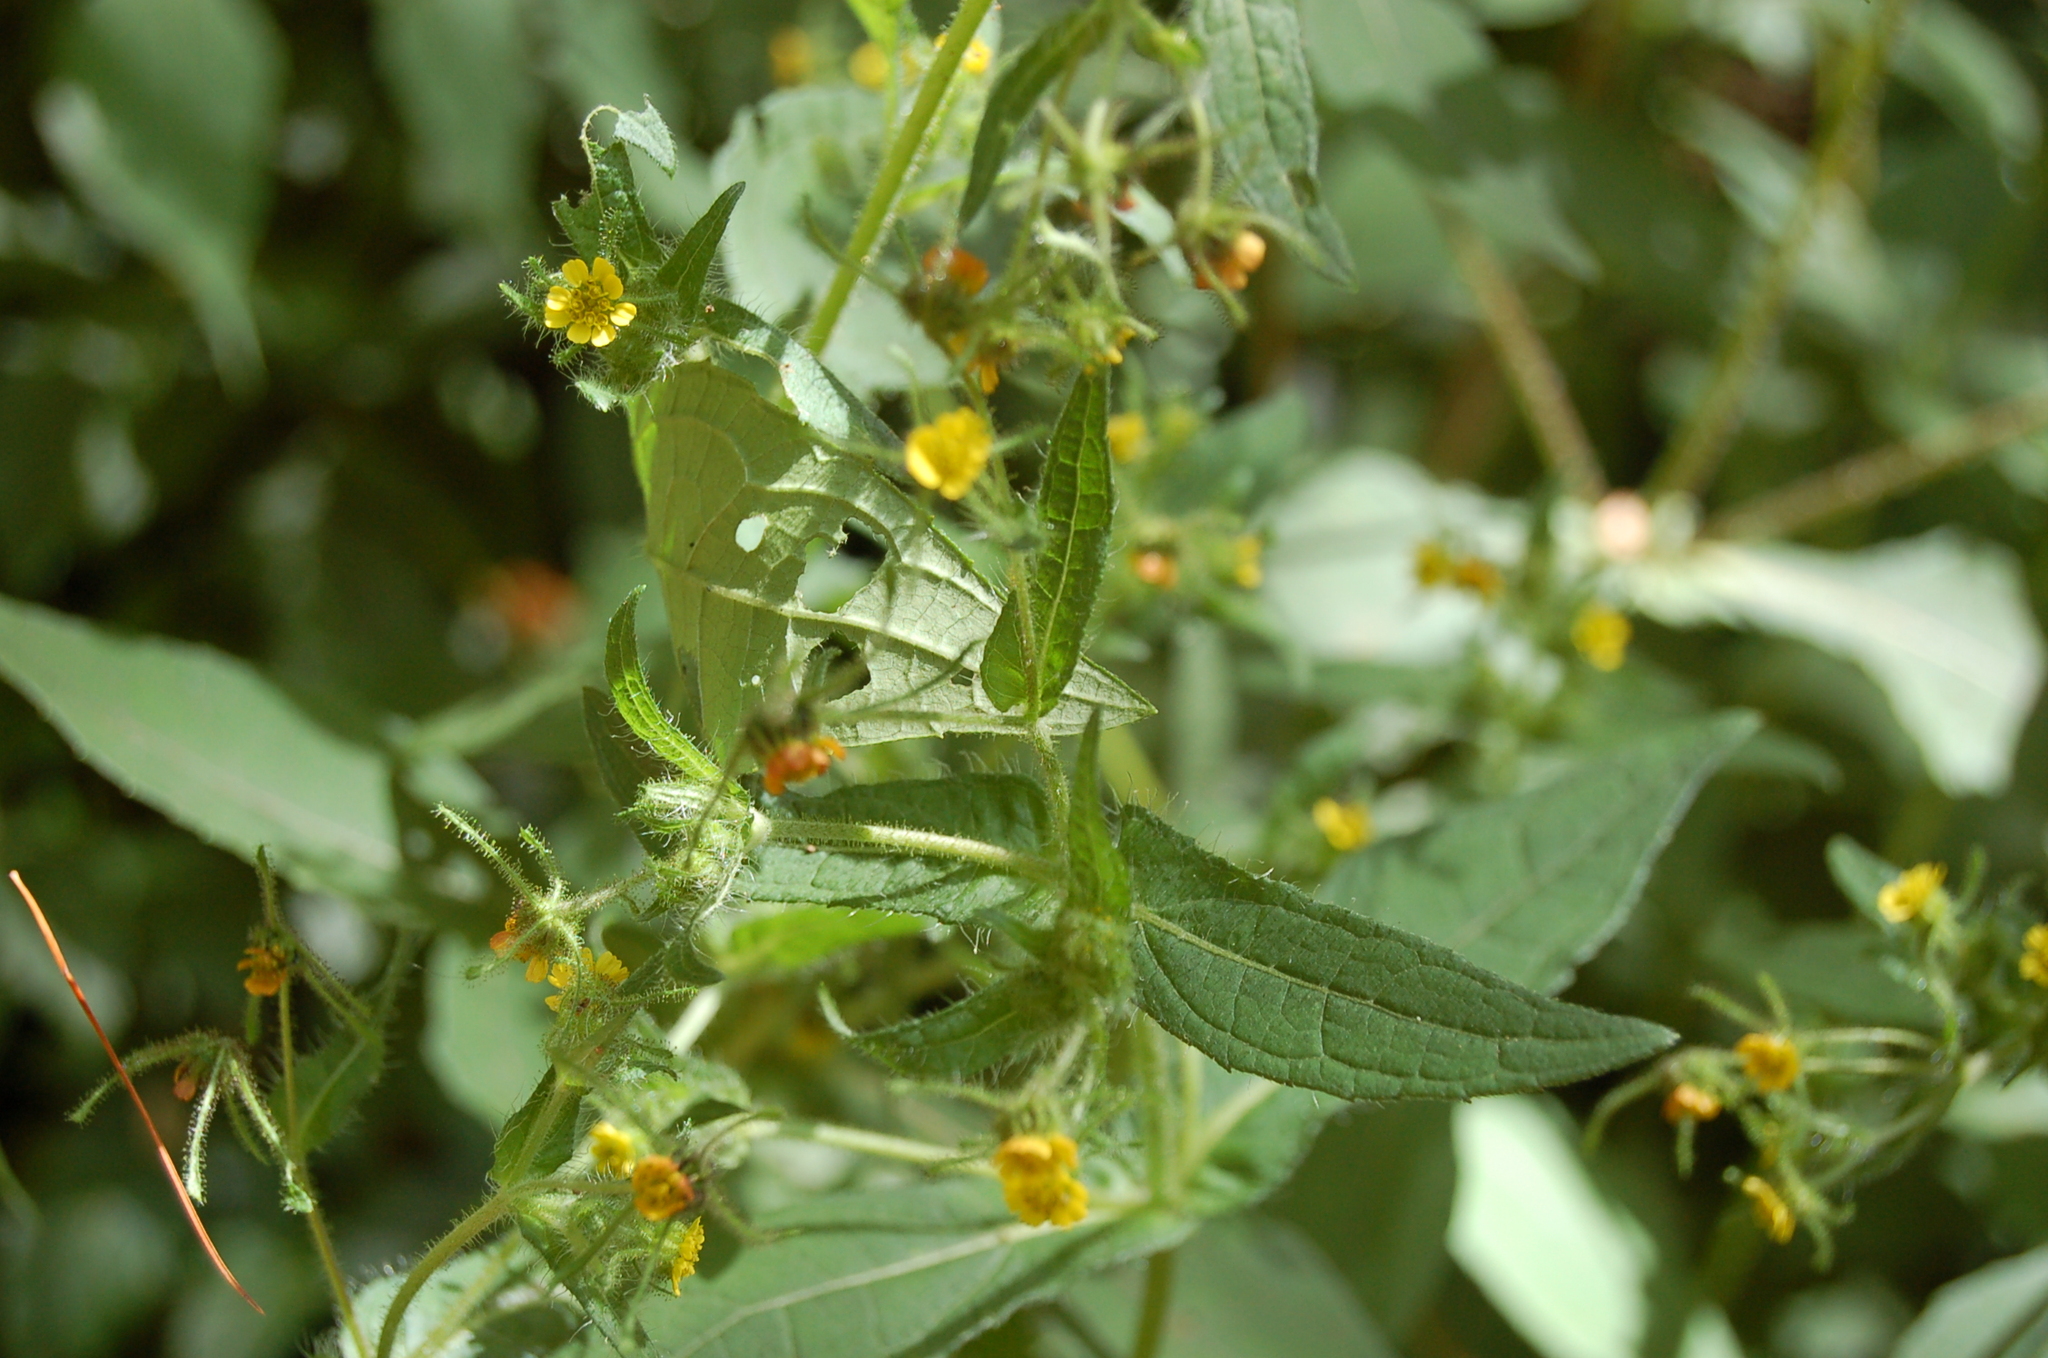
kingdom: Plantae
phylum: Tracheophyta
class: Magnoliopsida
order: Asterales
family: Asteraceae
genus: Sigesbeckia
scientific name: Sigesbeckia jorullensis
